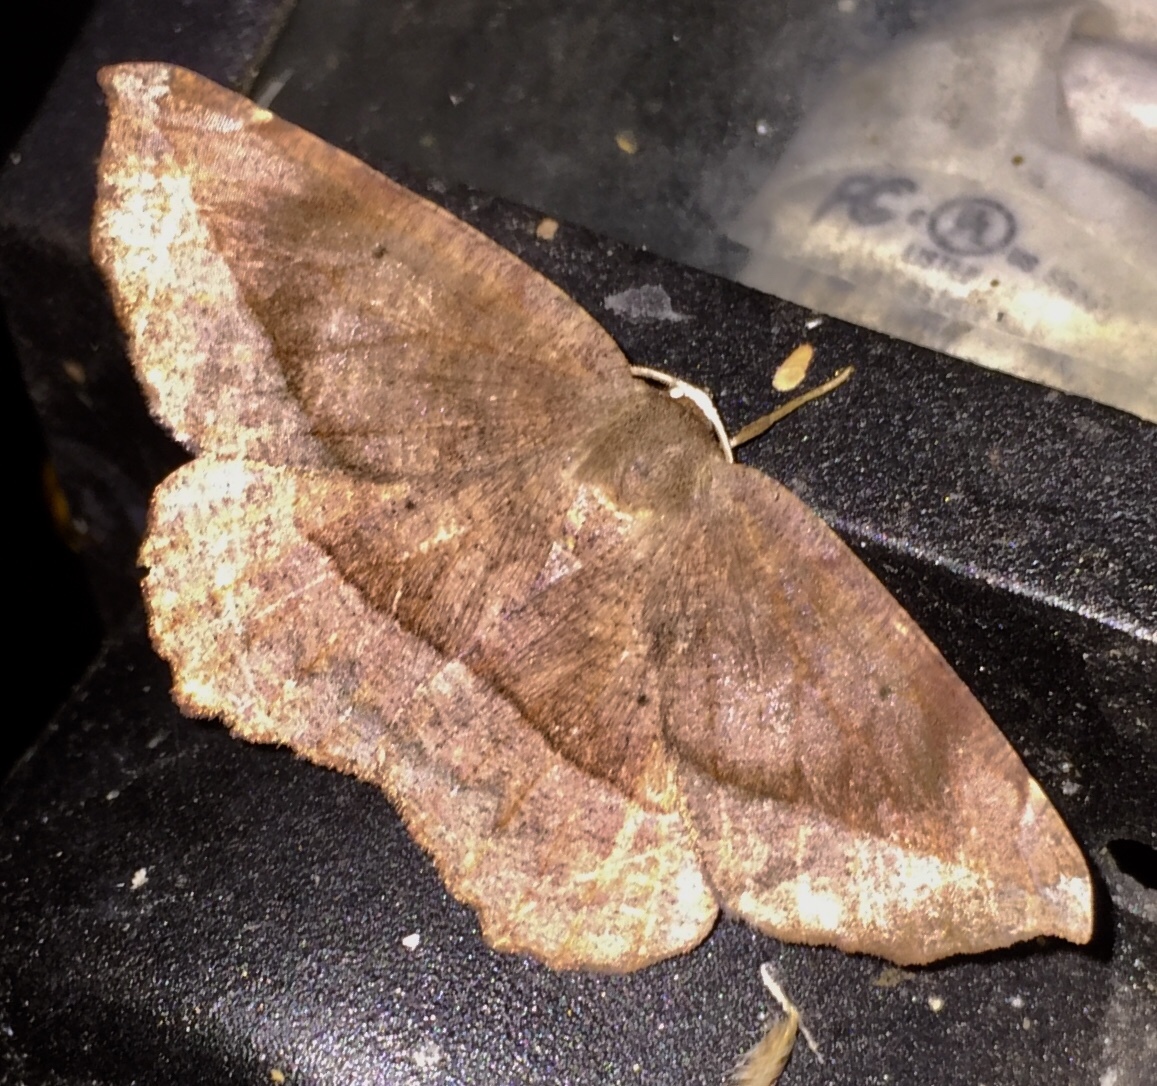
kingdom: Animalia
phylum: Arthropoda
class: Insecta
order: Lepidoptera
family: Geometridae
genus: Eutrapela
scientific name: Eutrapela clemataria
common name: Curved-toothed geometer
